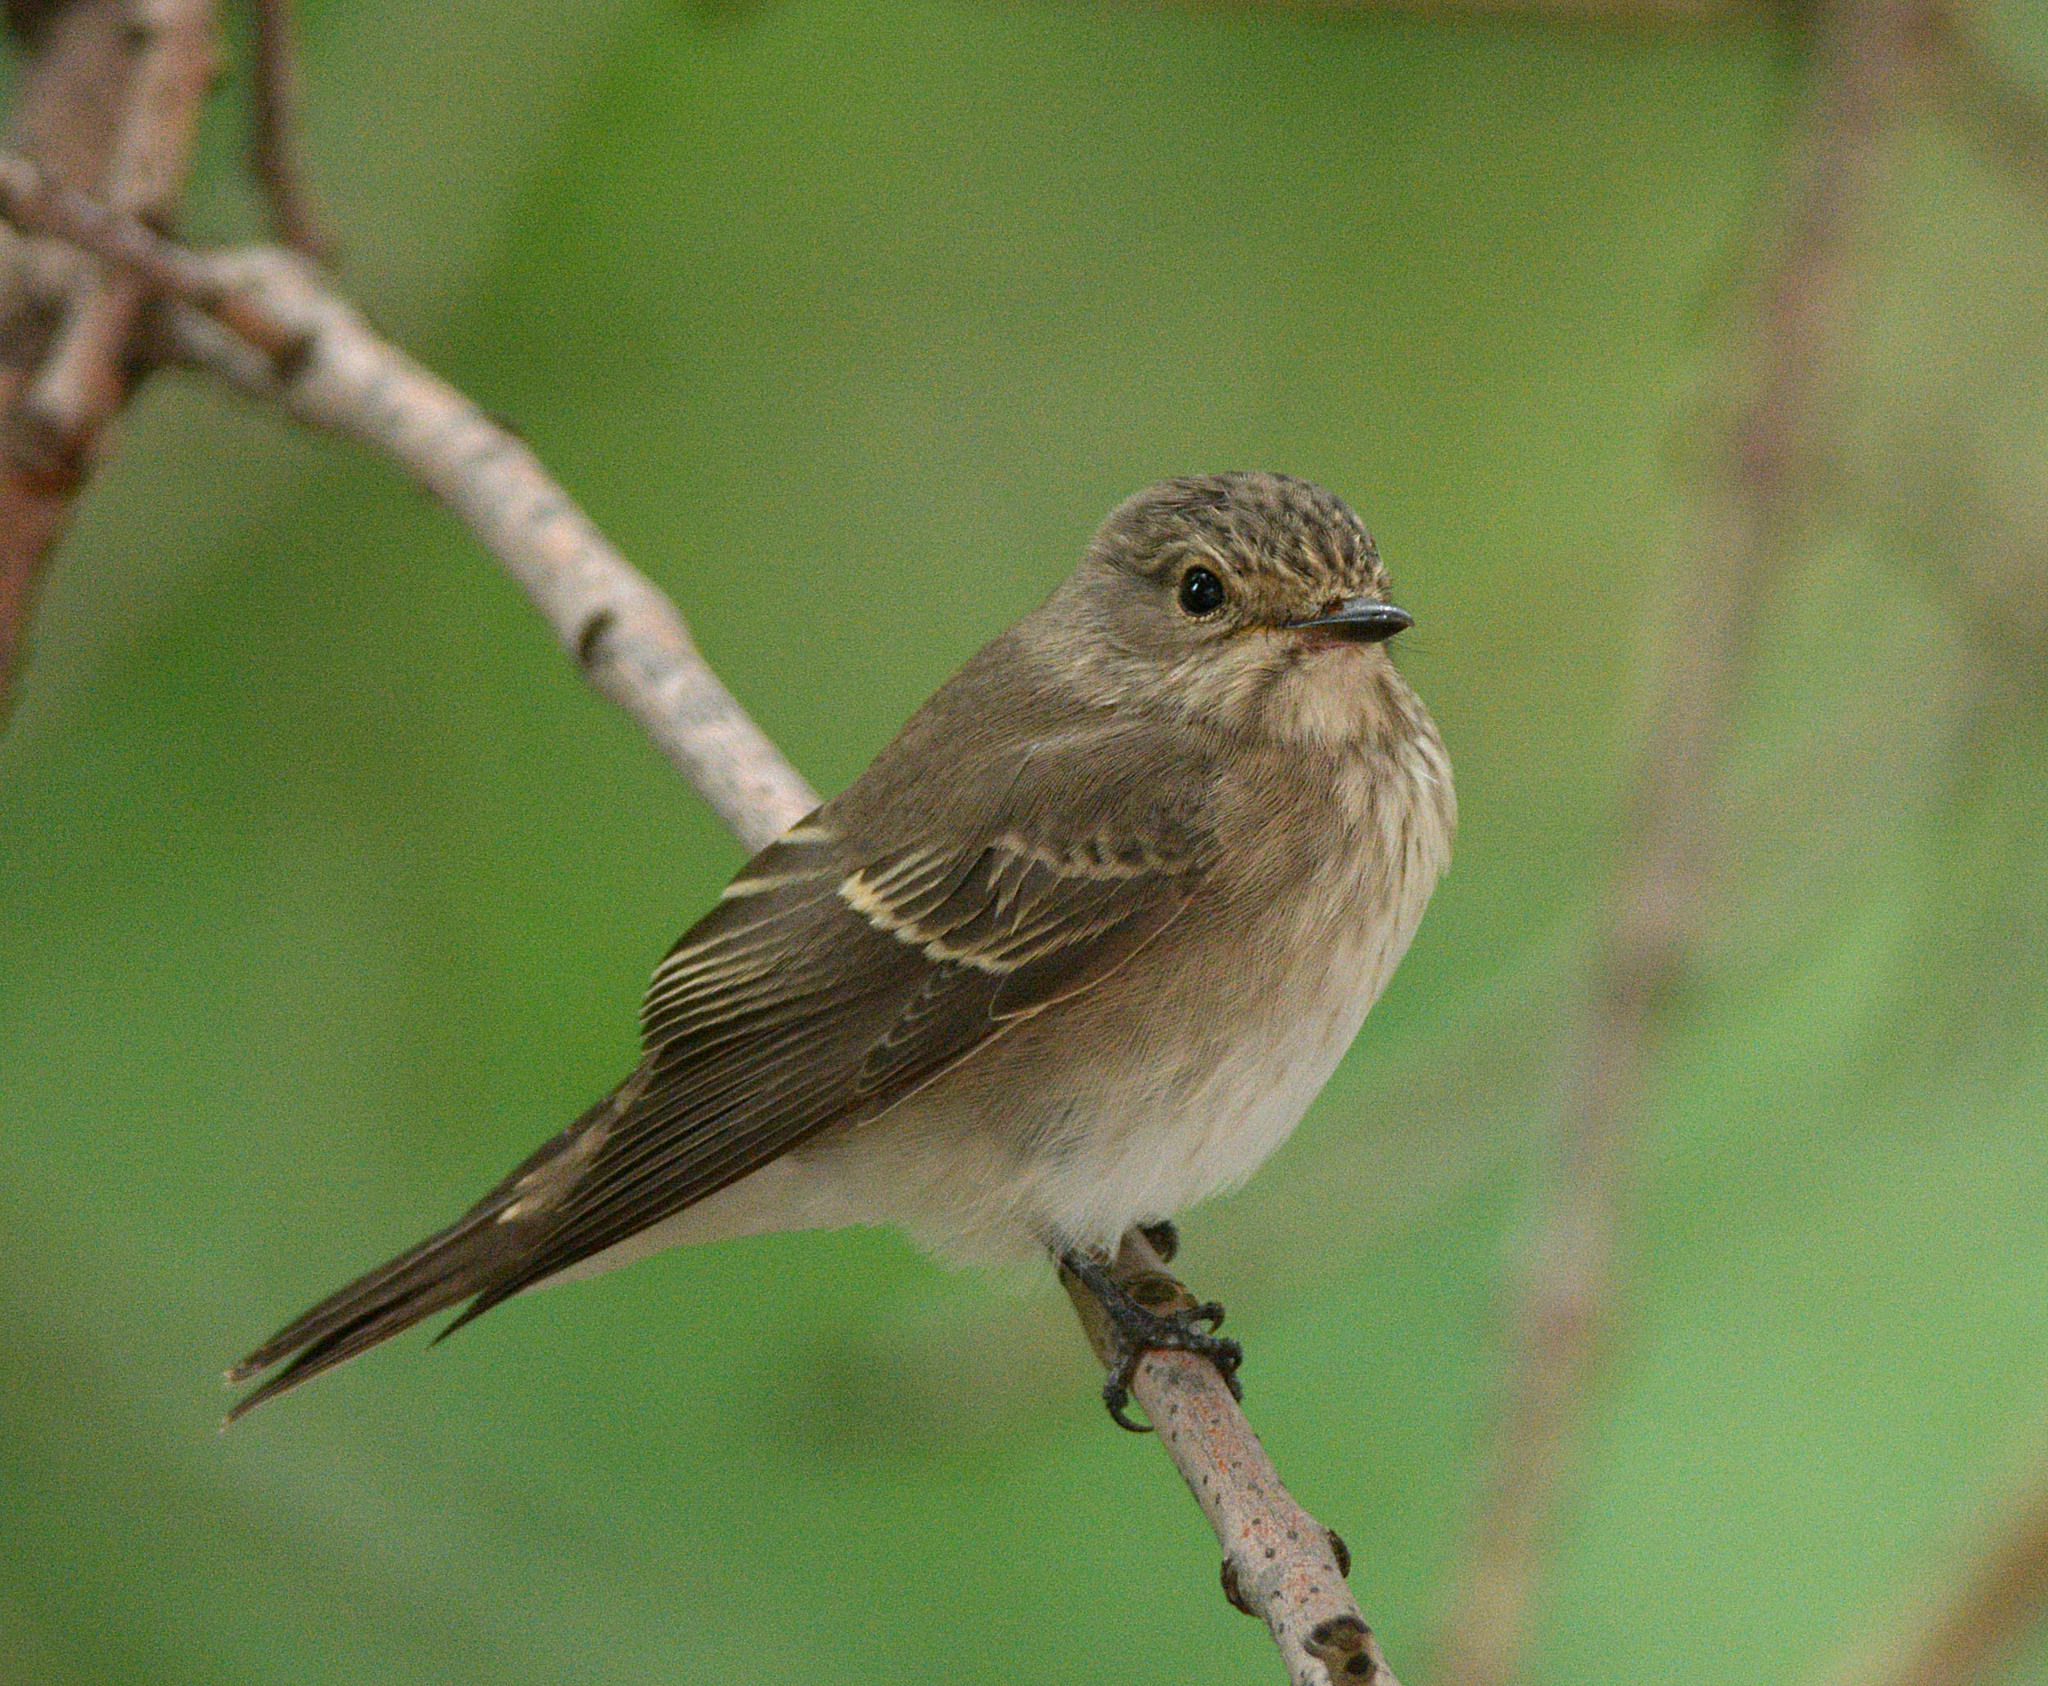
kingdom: Animalia
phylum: Chordata
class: Aves
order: Passeriformes
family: Muscicapidae
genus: Muscicapa
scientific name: Muscicapa striata
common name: Spotted flycatcher
